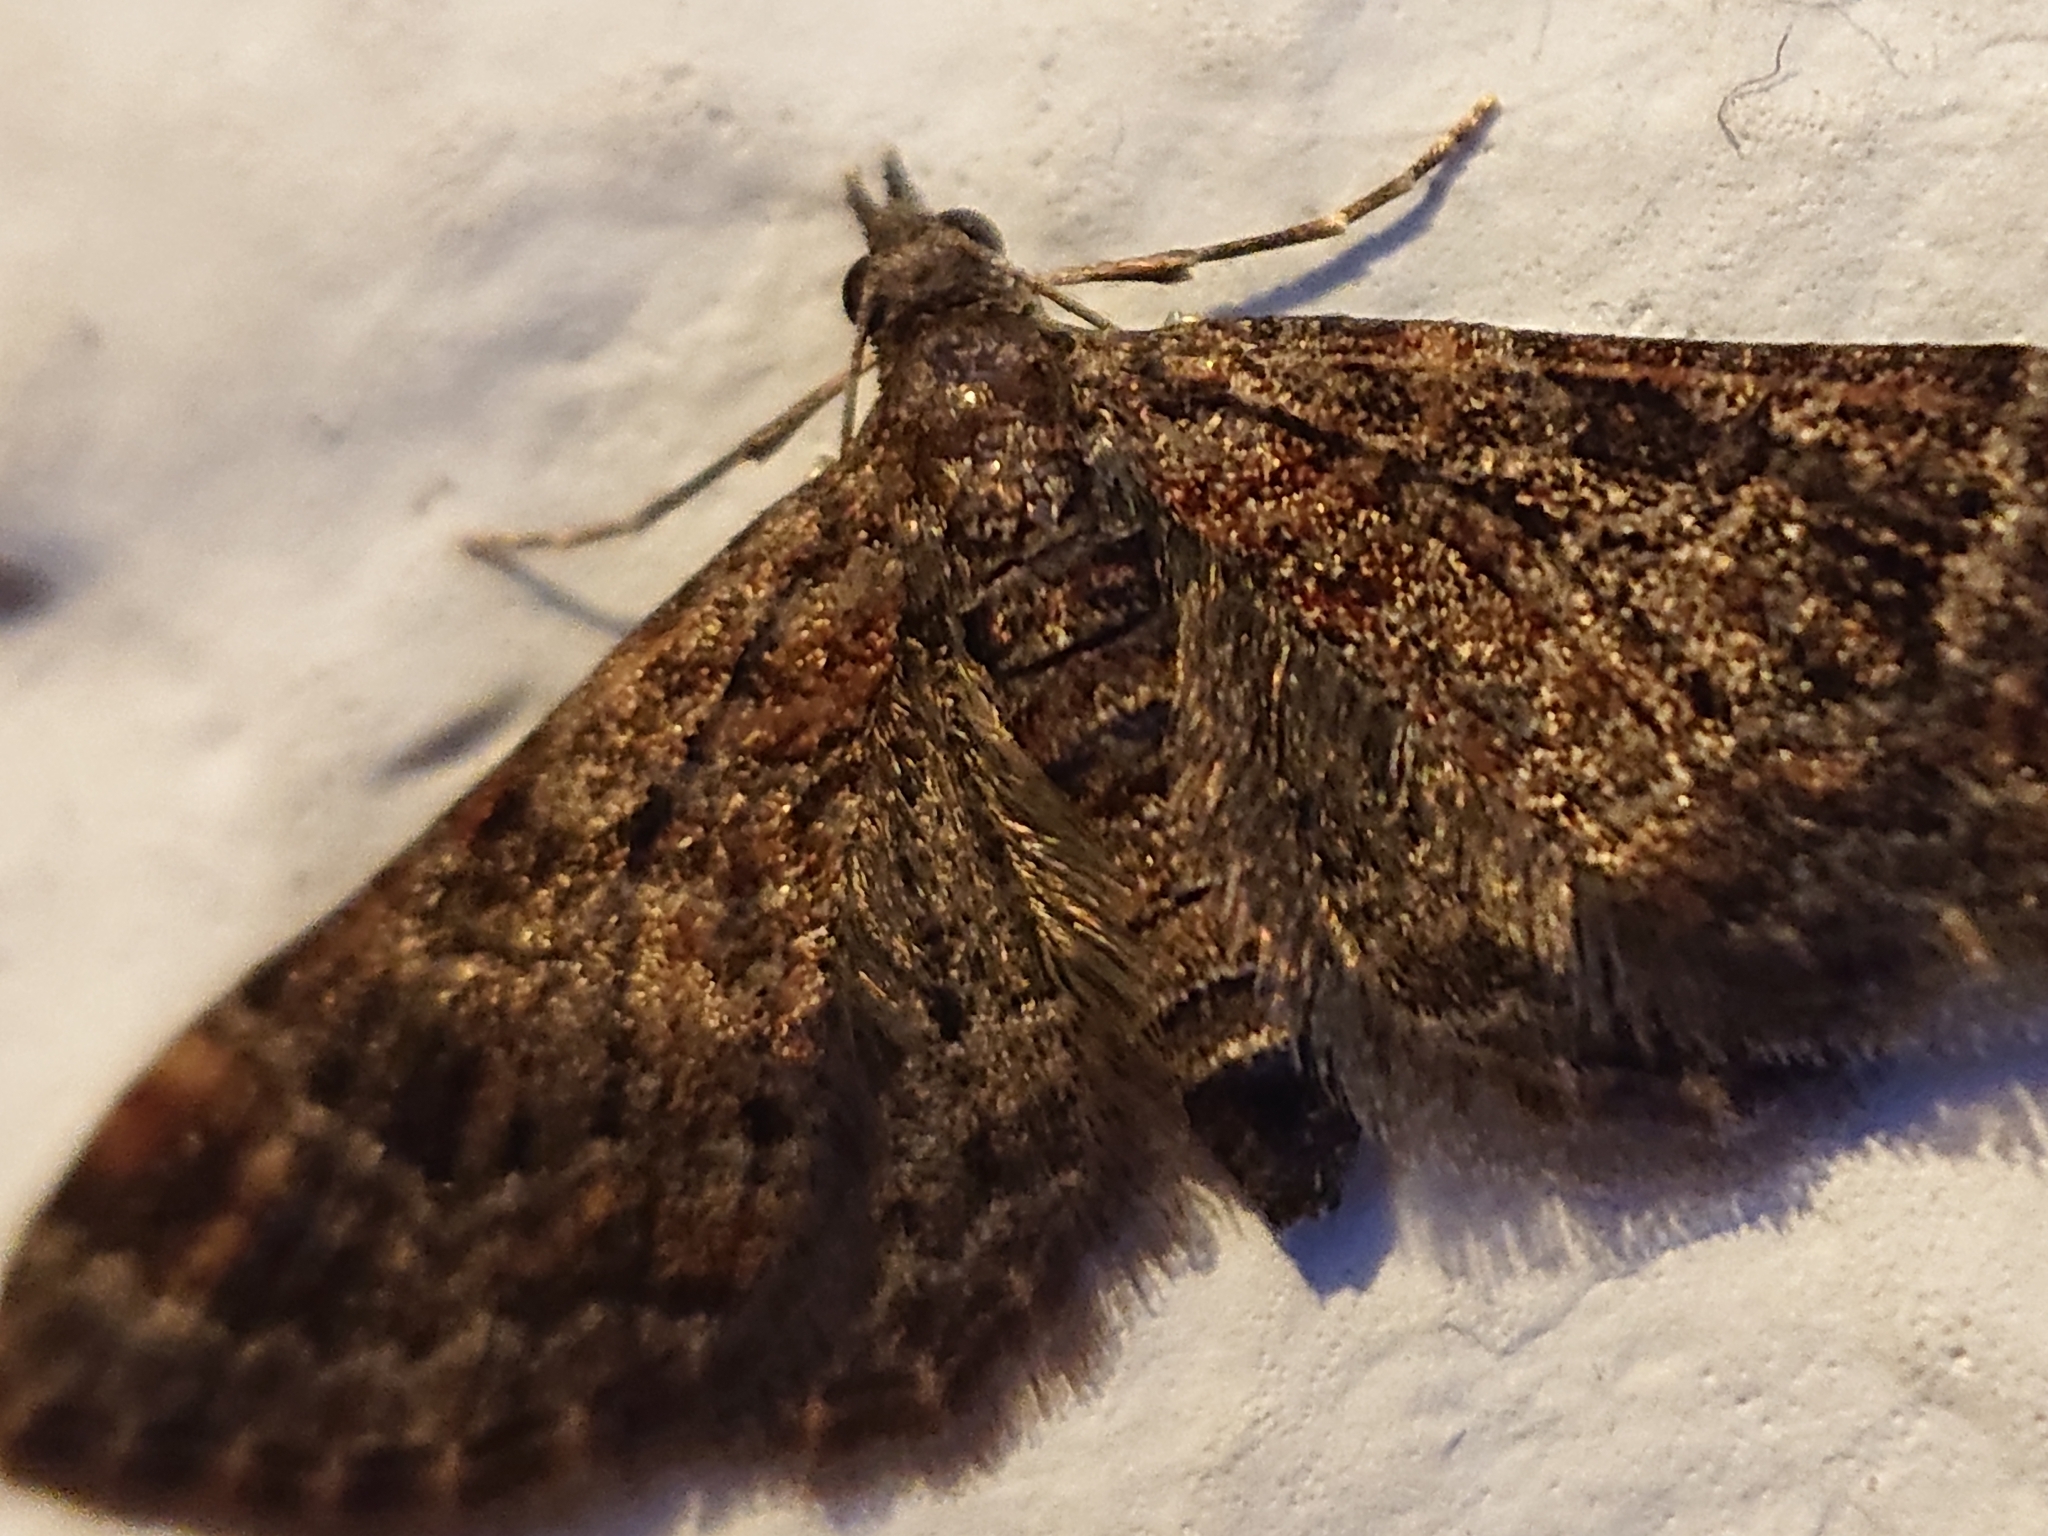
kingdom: Animalia
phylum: Arthropoda
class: Insecta
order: Lepidoptera
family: Geometridae
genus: Gymnoscelis
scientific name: Gymnoscelis rufifasciata
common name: Double-striped pug
